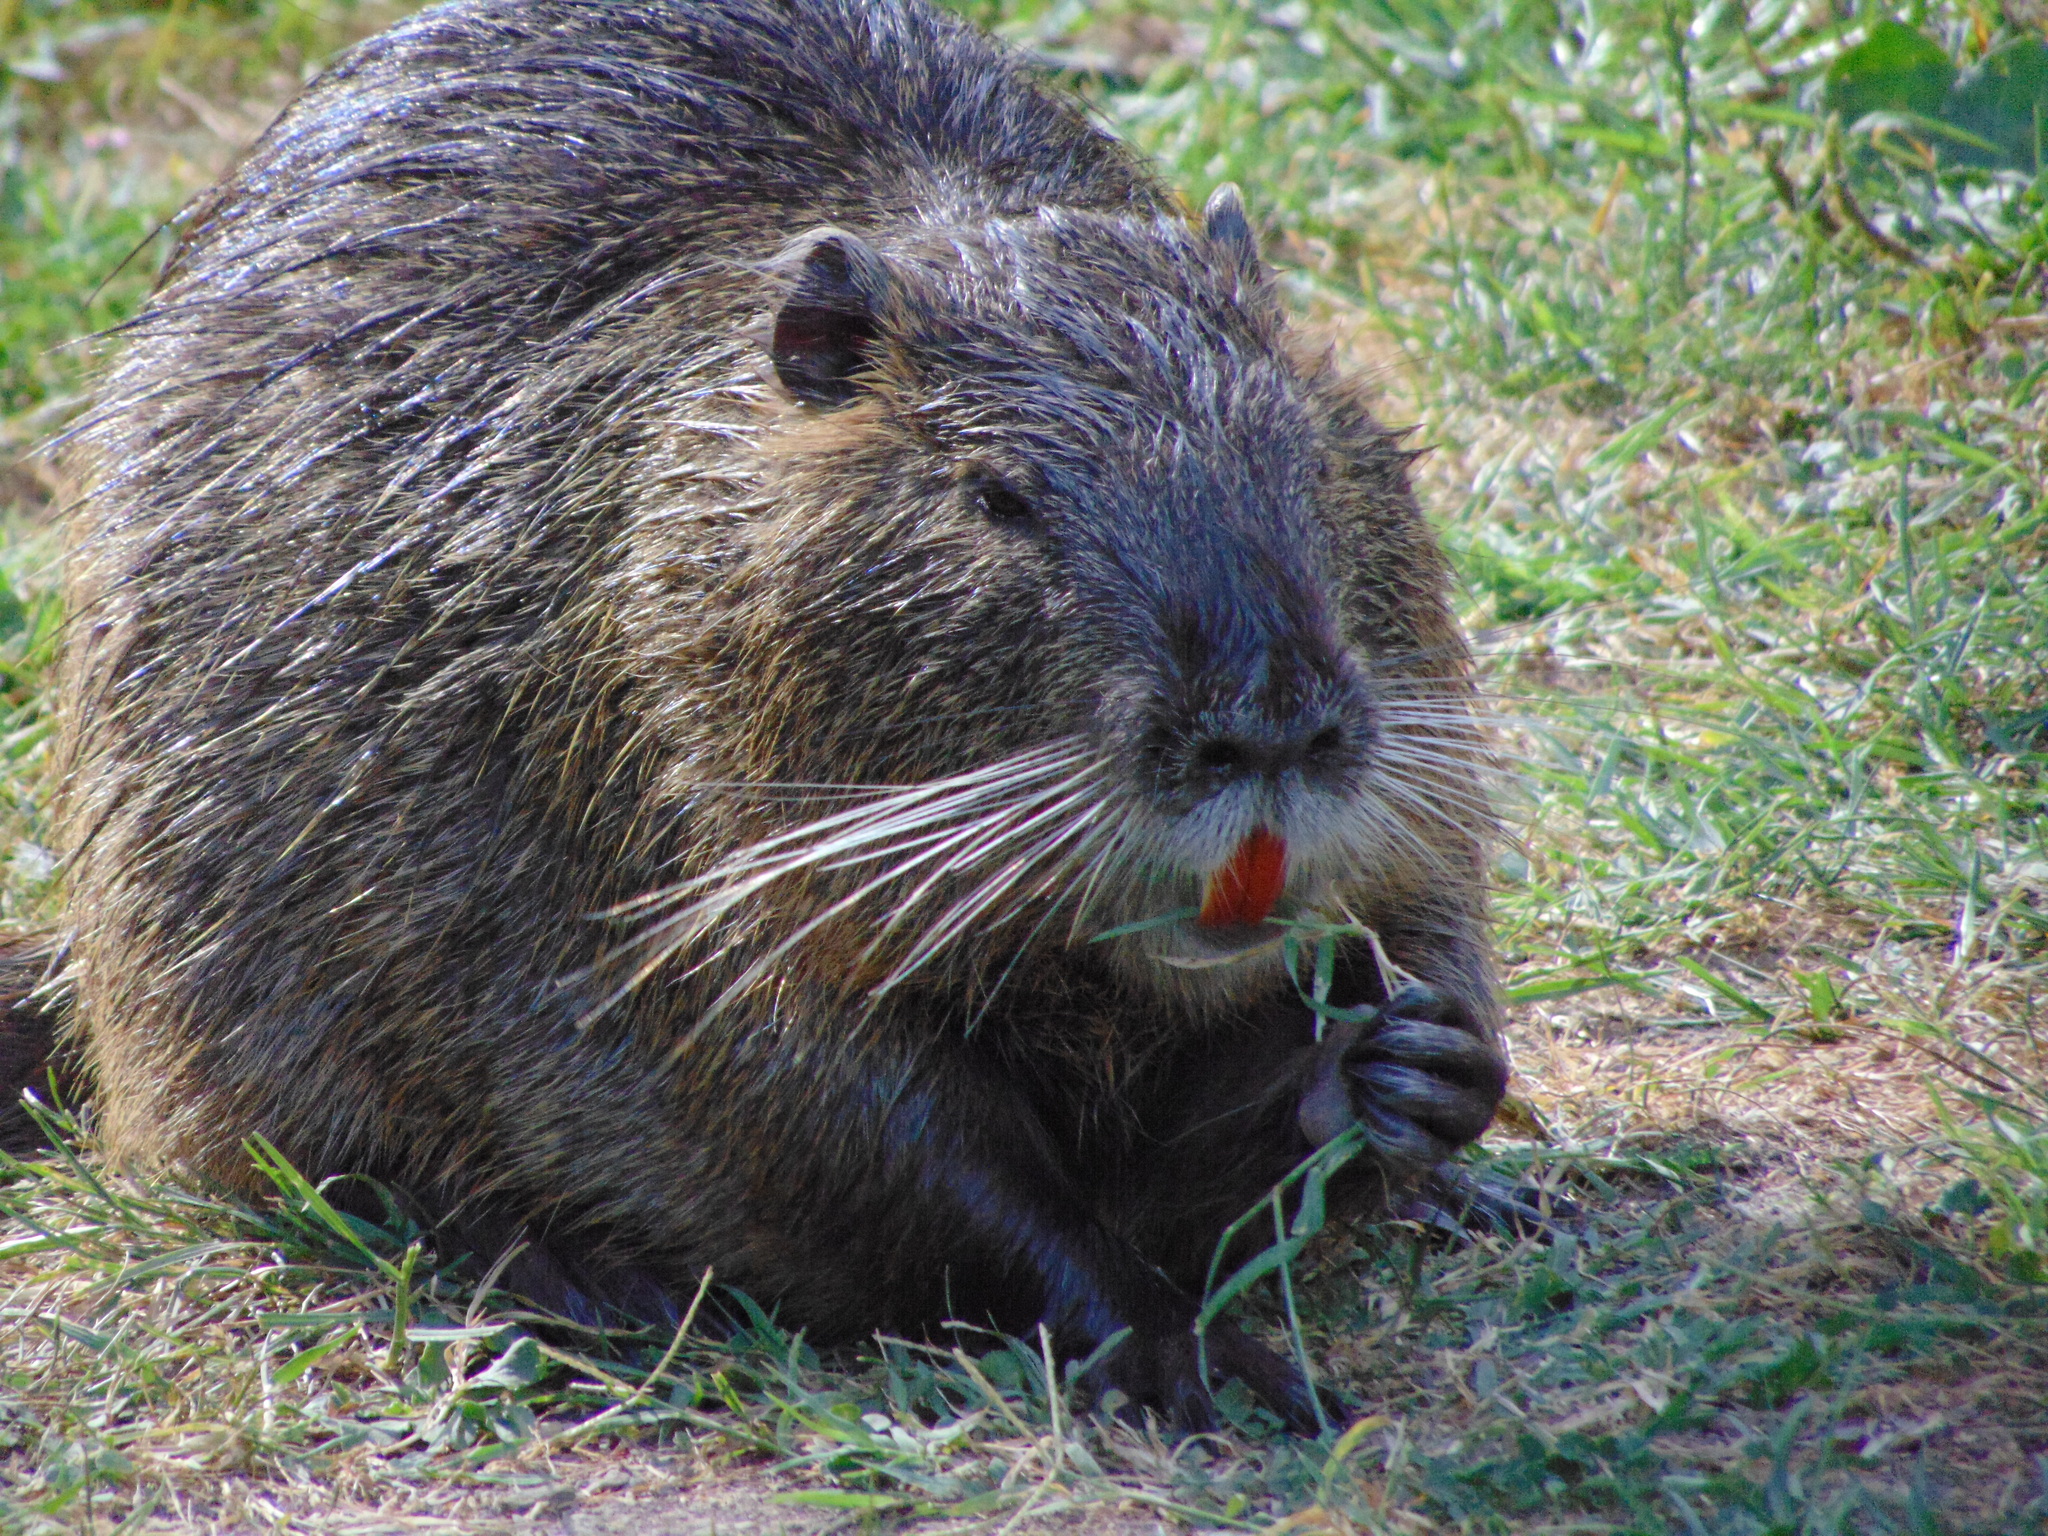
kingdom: Animalia
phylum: Chordata
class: Mammalia
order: Rodentia
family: Myocastoridae
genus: Myocastor
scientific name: Myocastor coypus
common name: Coypu
